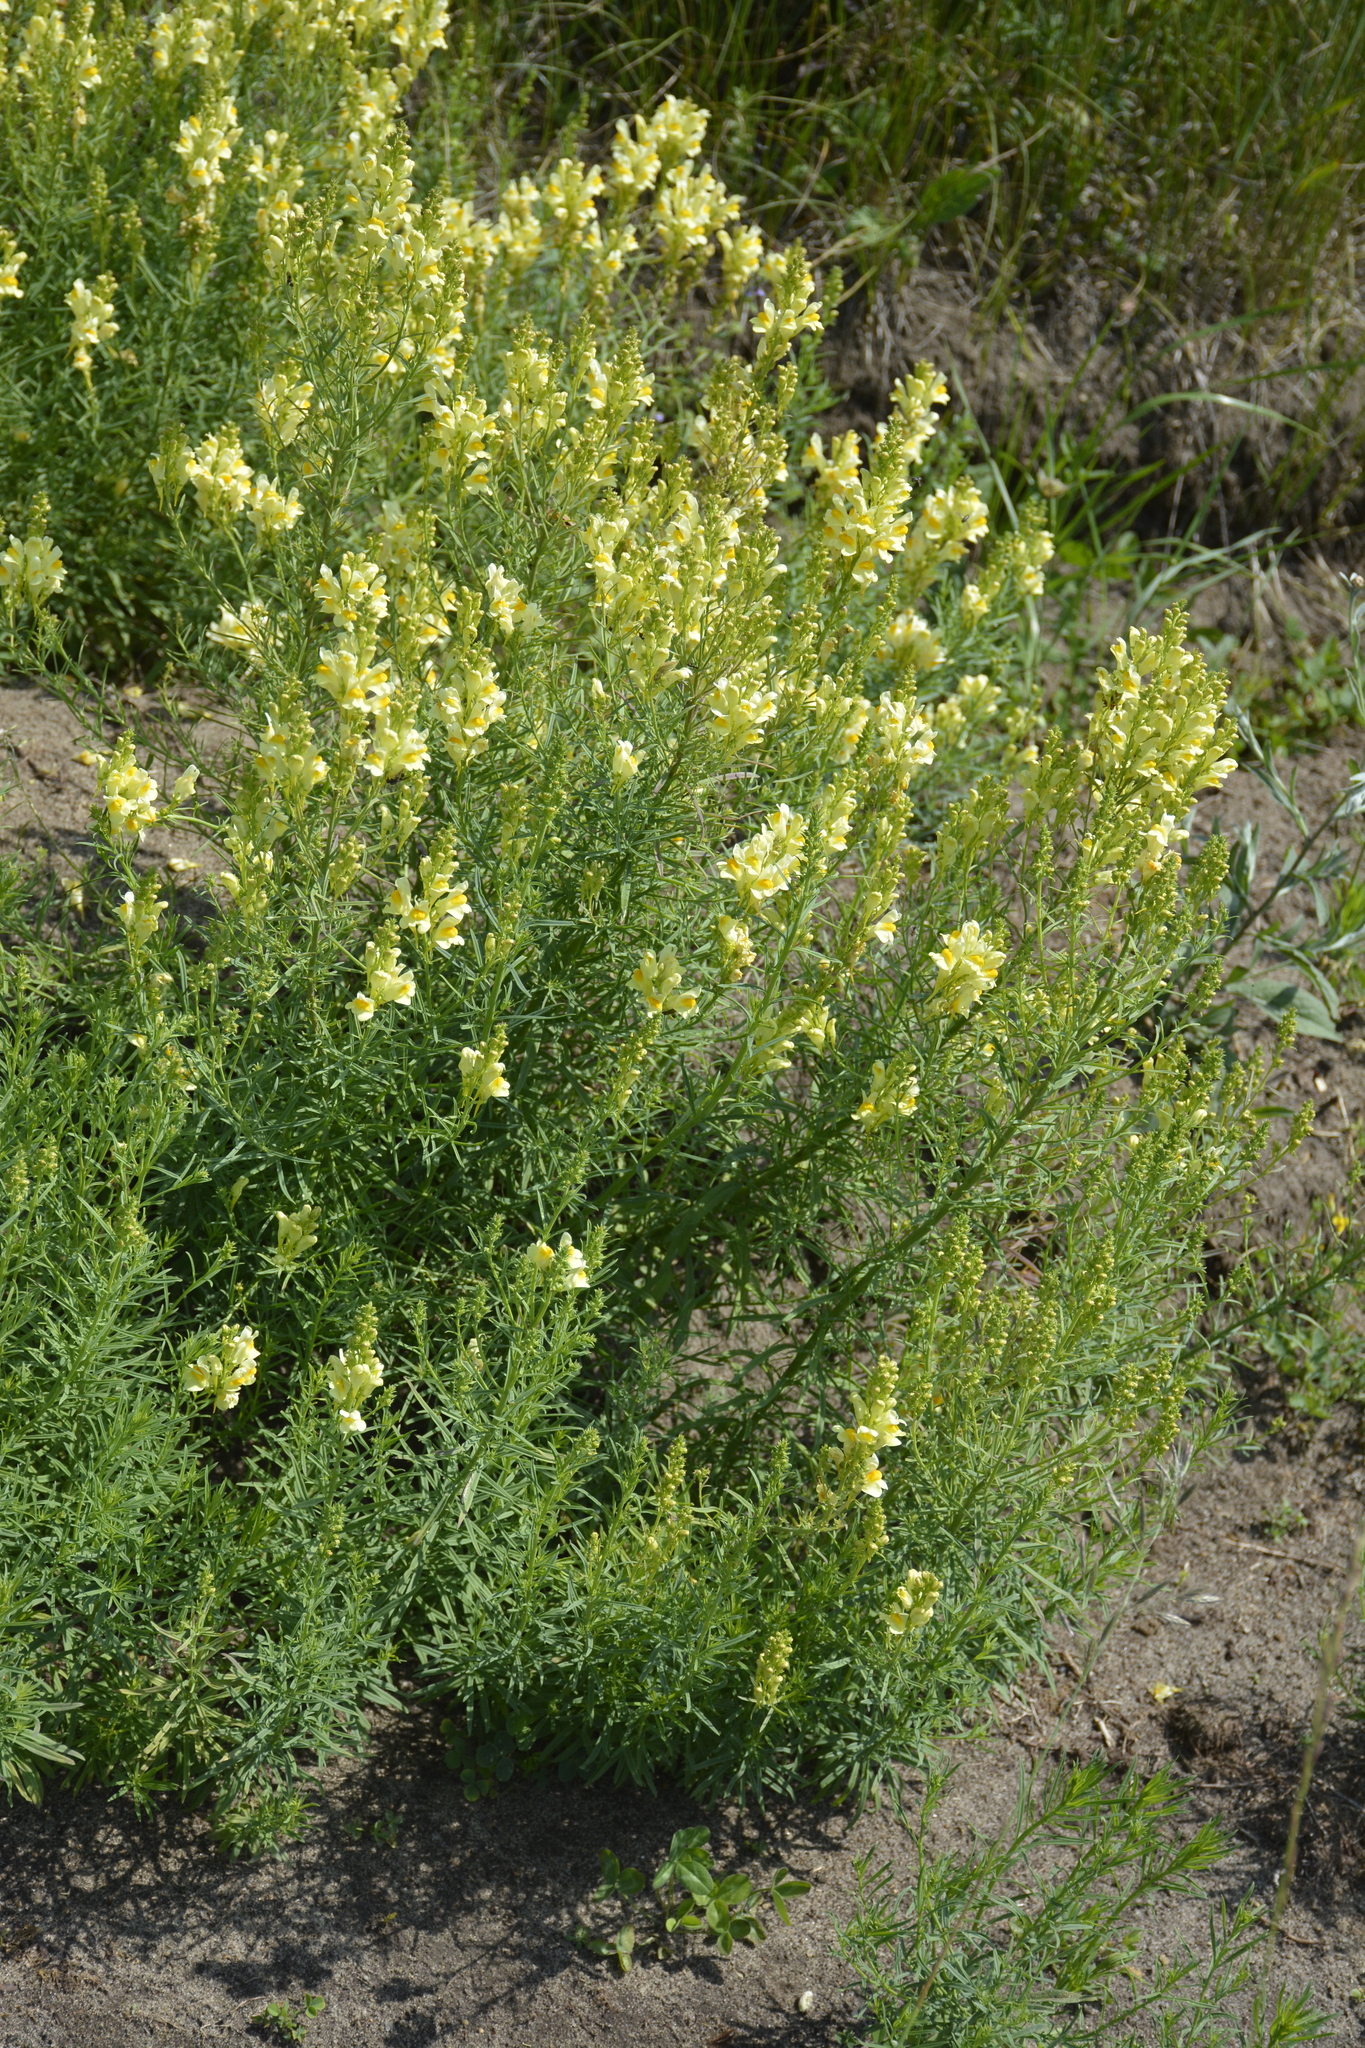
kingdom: Plantae
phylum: Tracheophyta
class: Magnoliopsida
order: Lamiales
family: Plantaginaceae
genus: Linaria
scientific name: Linaria vulgaris
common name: Butter and eggs
